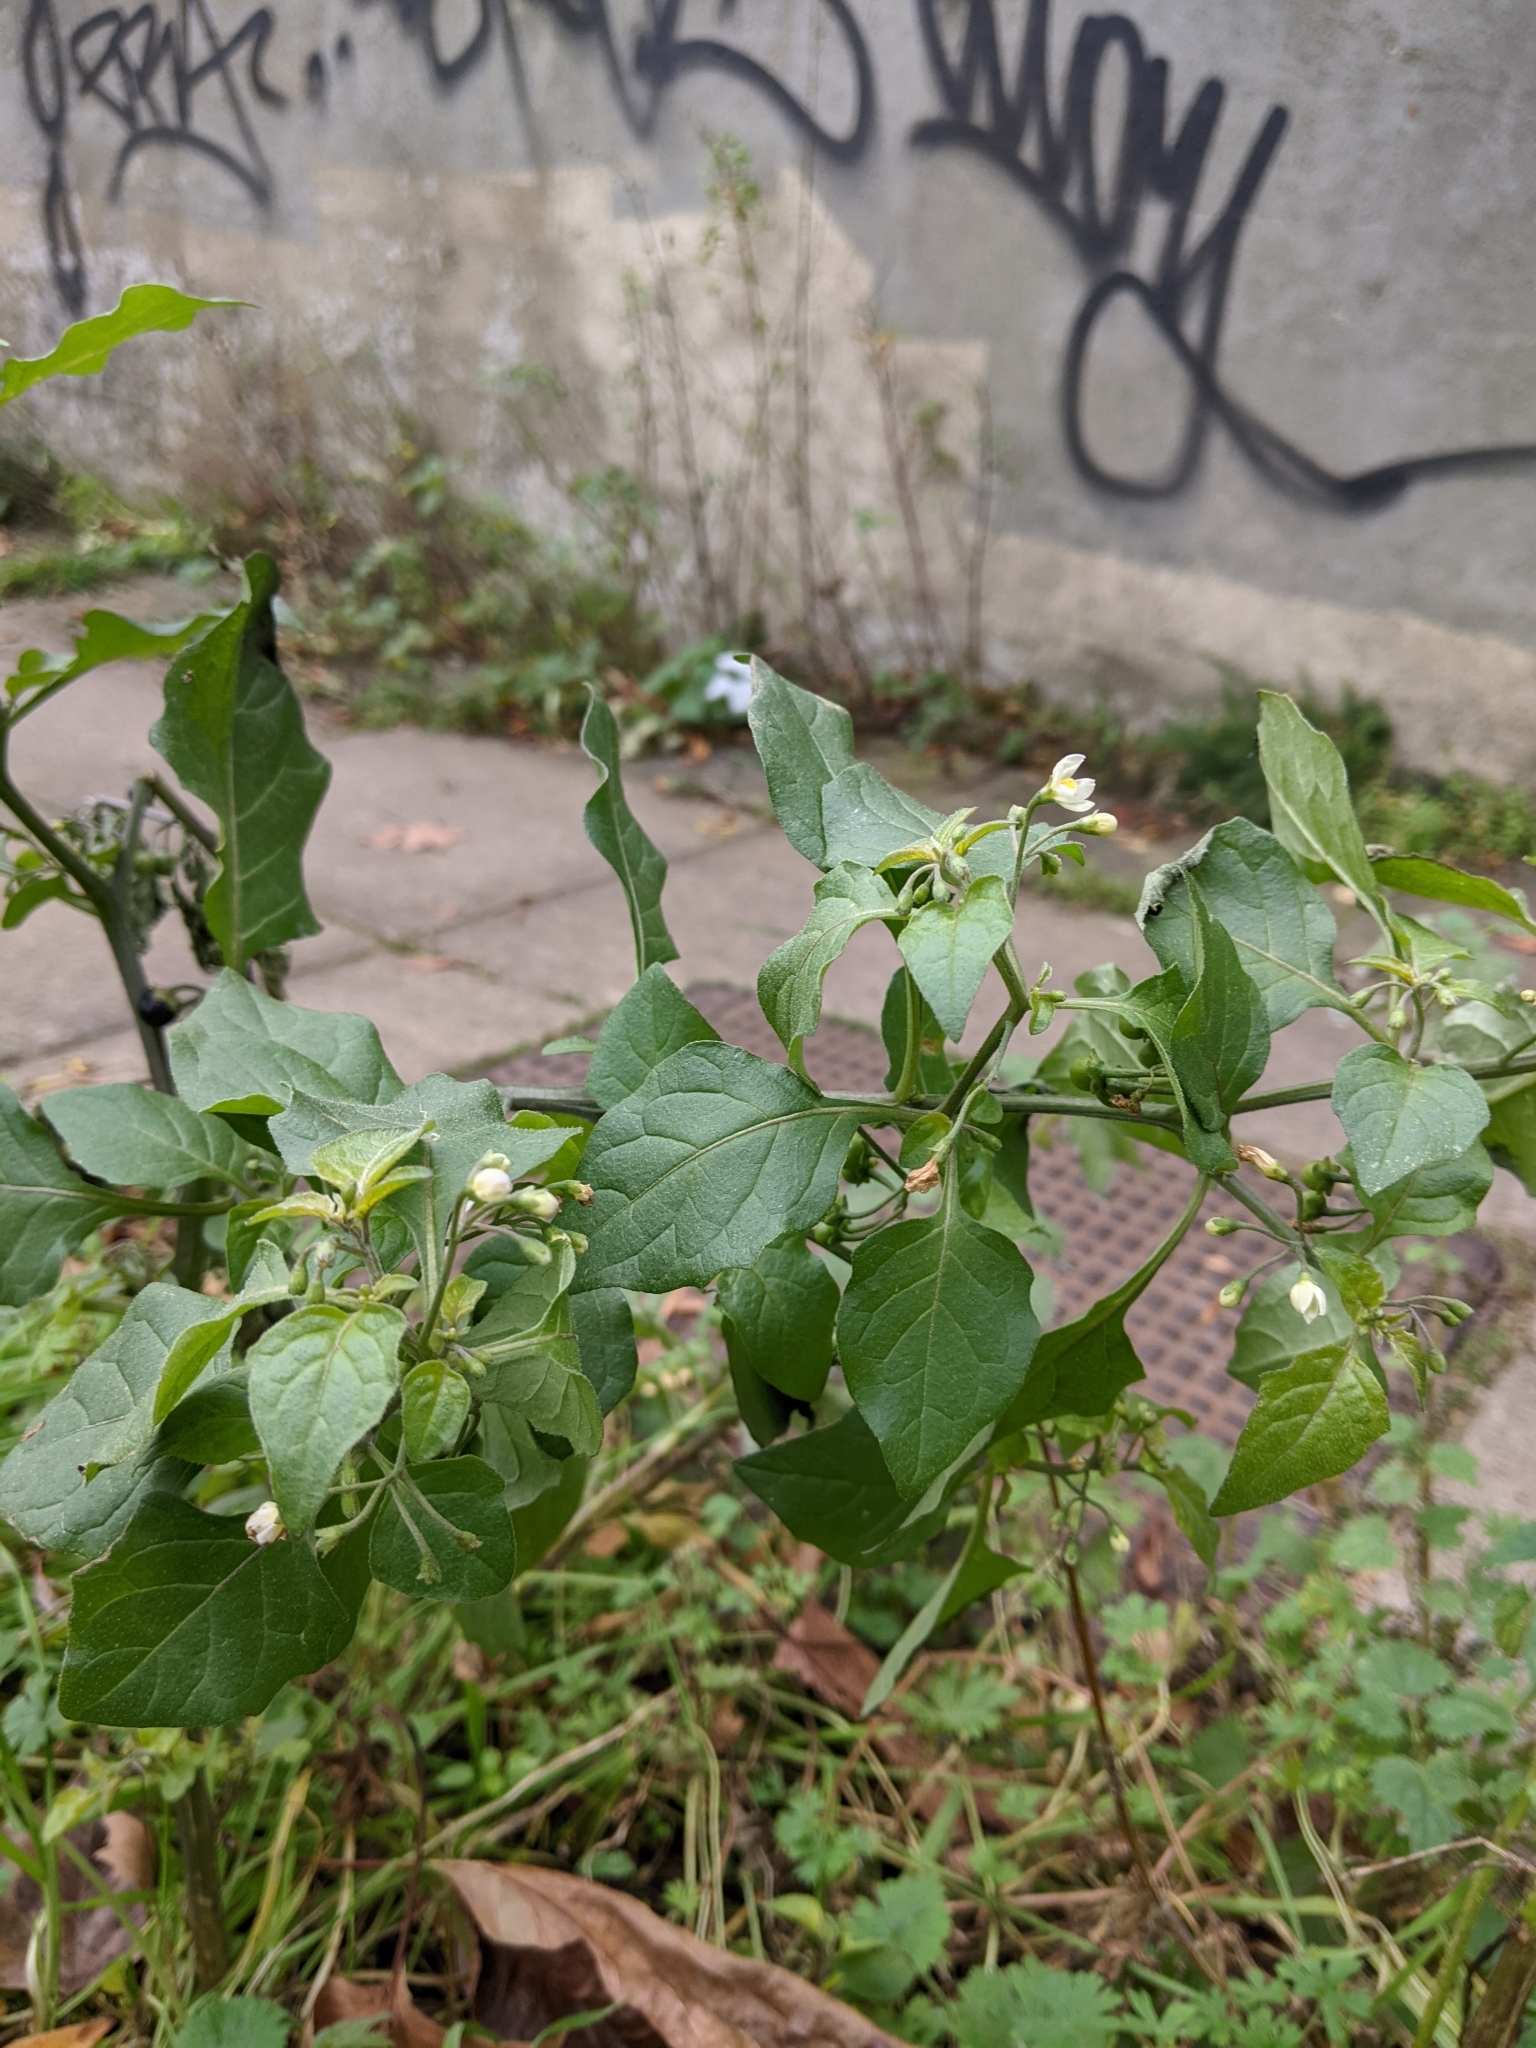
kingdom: Plantae
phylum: Tracheophyta
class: Magnoliopsida
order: Solanales
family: Solanaceae
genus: Solanum
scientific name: Solanum nigrum
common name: Black nightshade
